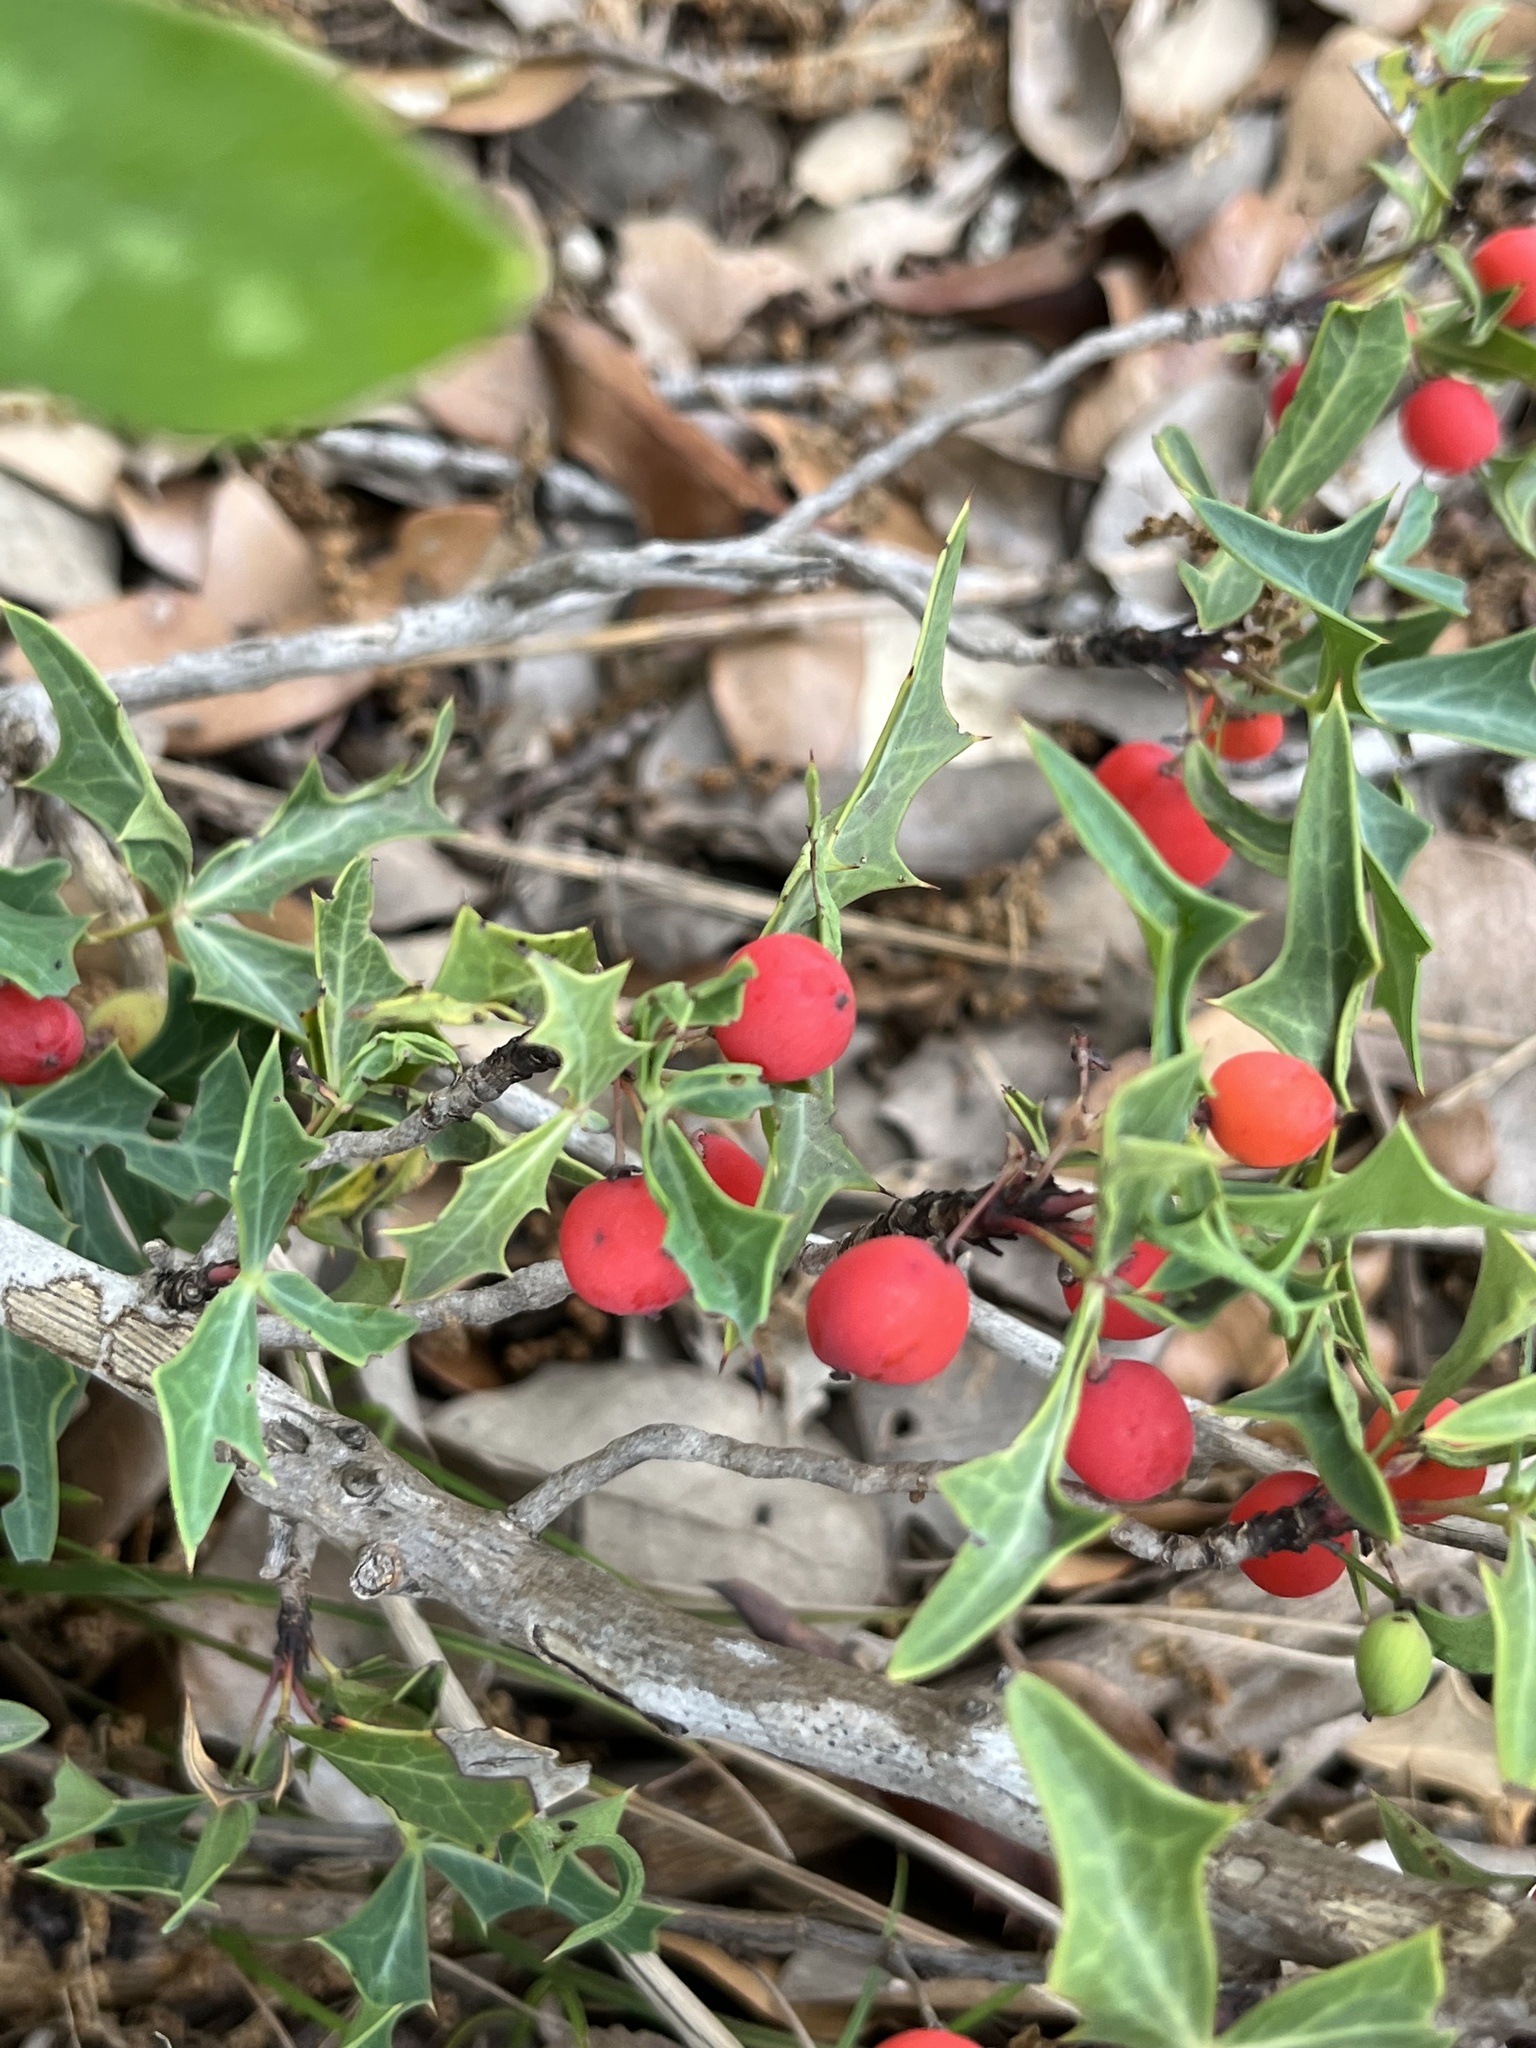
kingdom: Plantae
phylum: Tracheophyta
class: Magnoliopsida
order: Ranunculales
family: Berberidaceae
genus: Alloberberis
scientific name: Alloberberis trifoliolata
